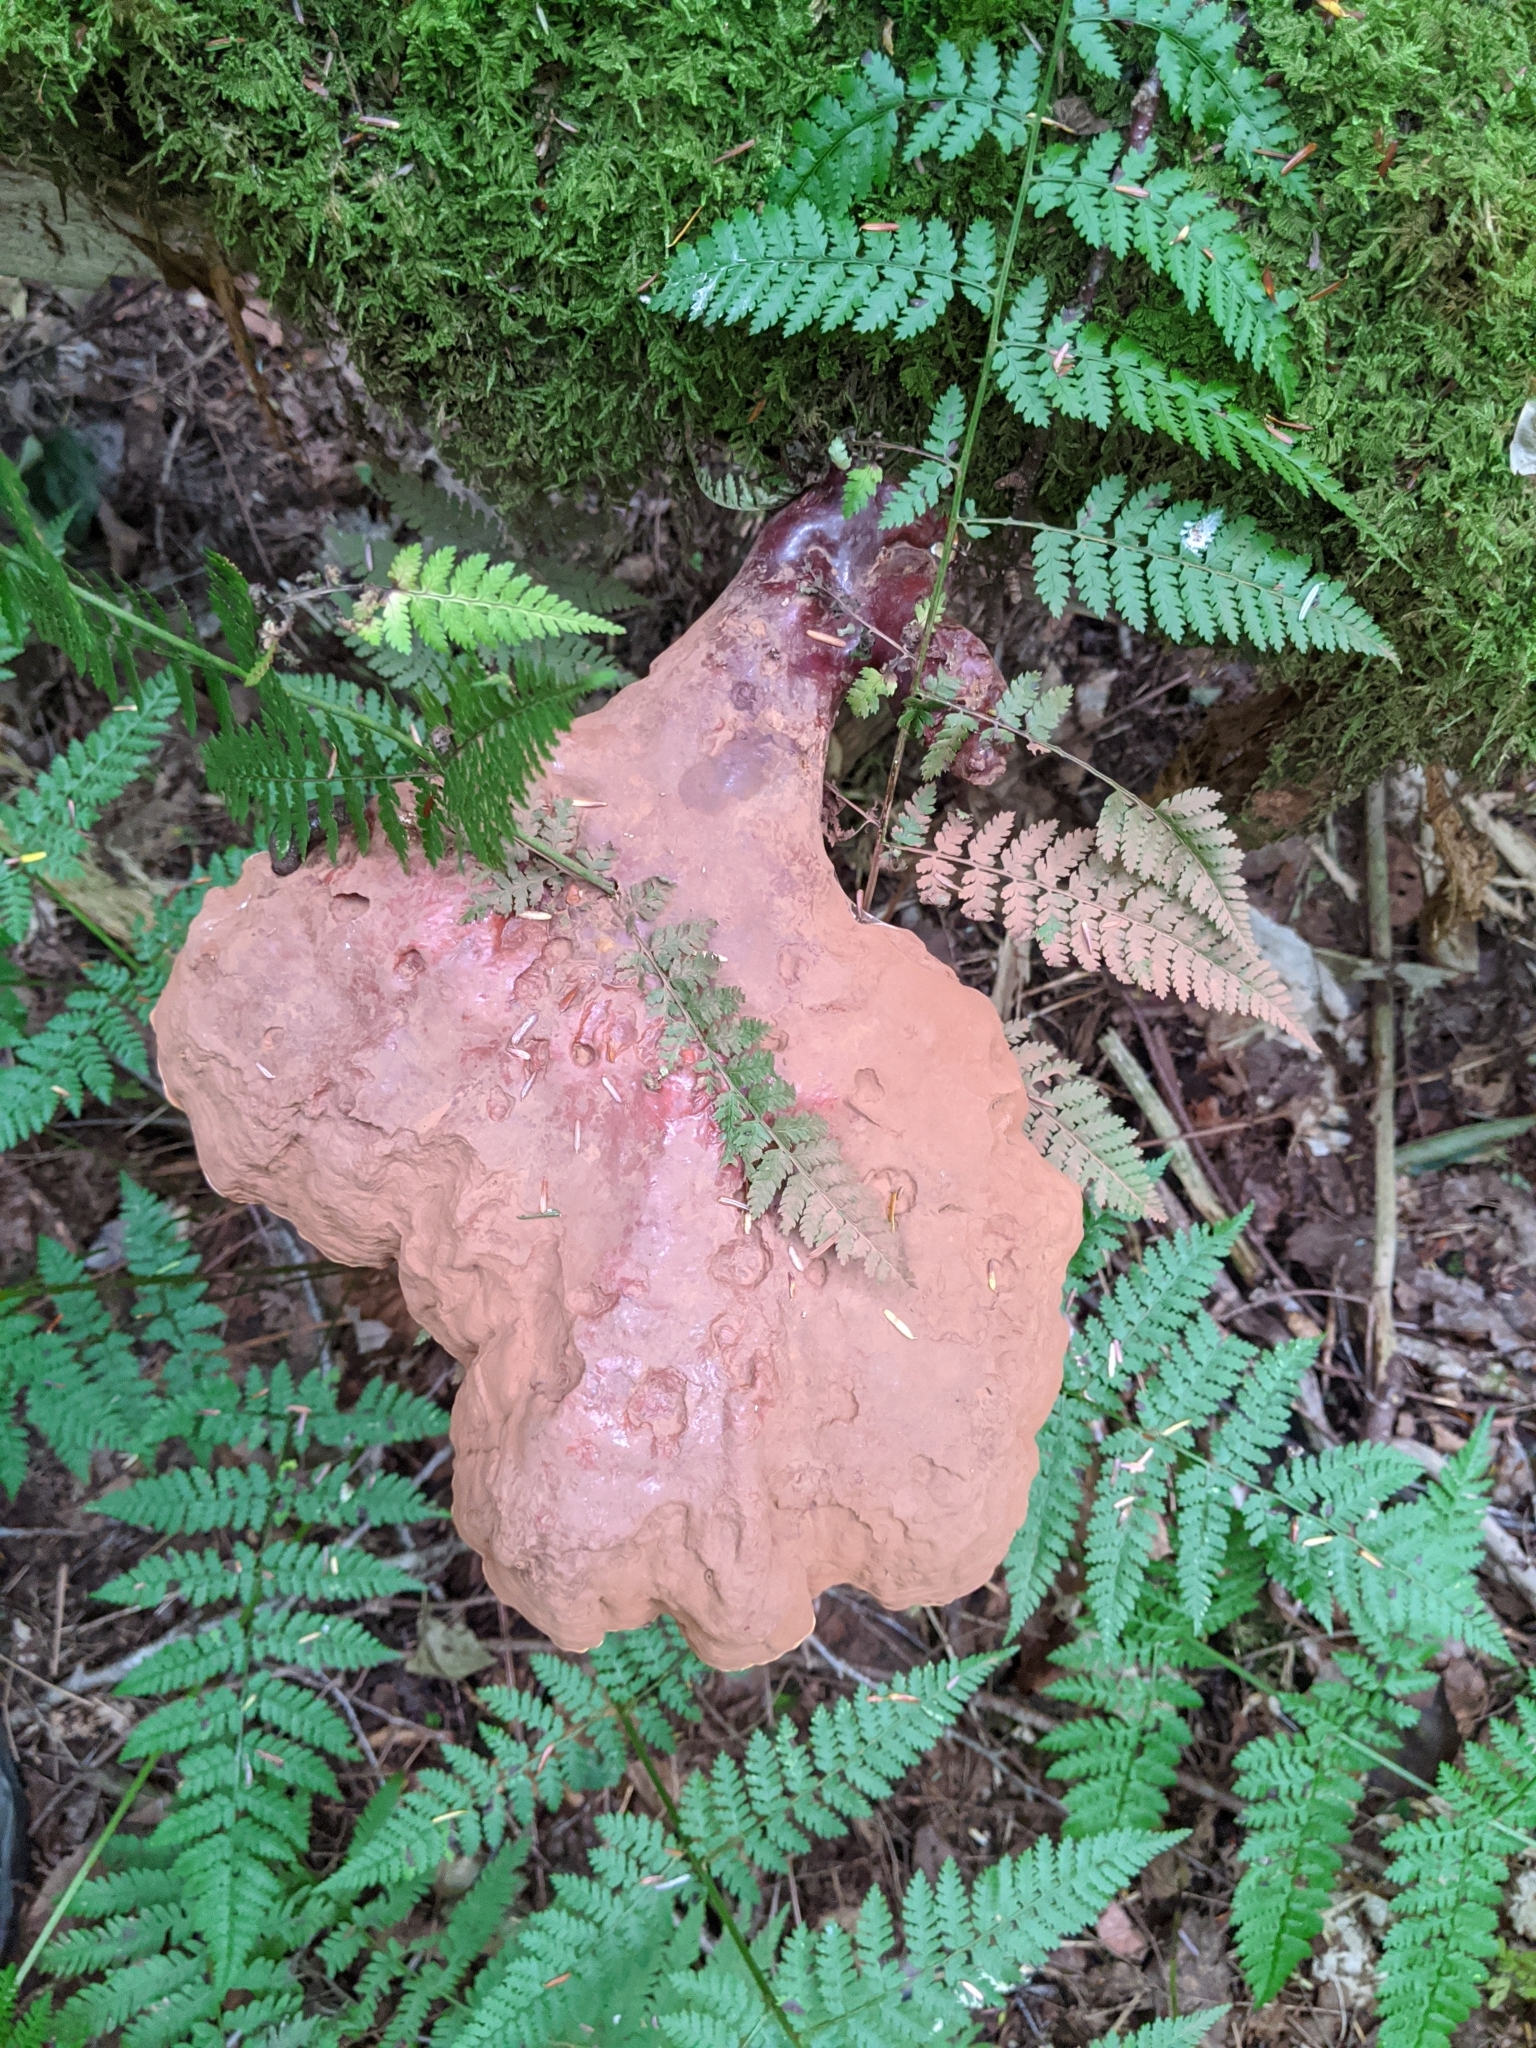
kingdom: Fungi
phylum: Basidiomycota
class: Agaricomycetes
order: Polyporales
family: Polyporaceae
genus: Ganoderma
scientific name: Ganoderma tsugae
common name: Hemlock varnish shelf
